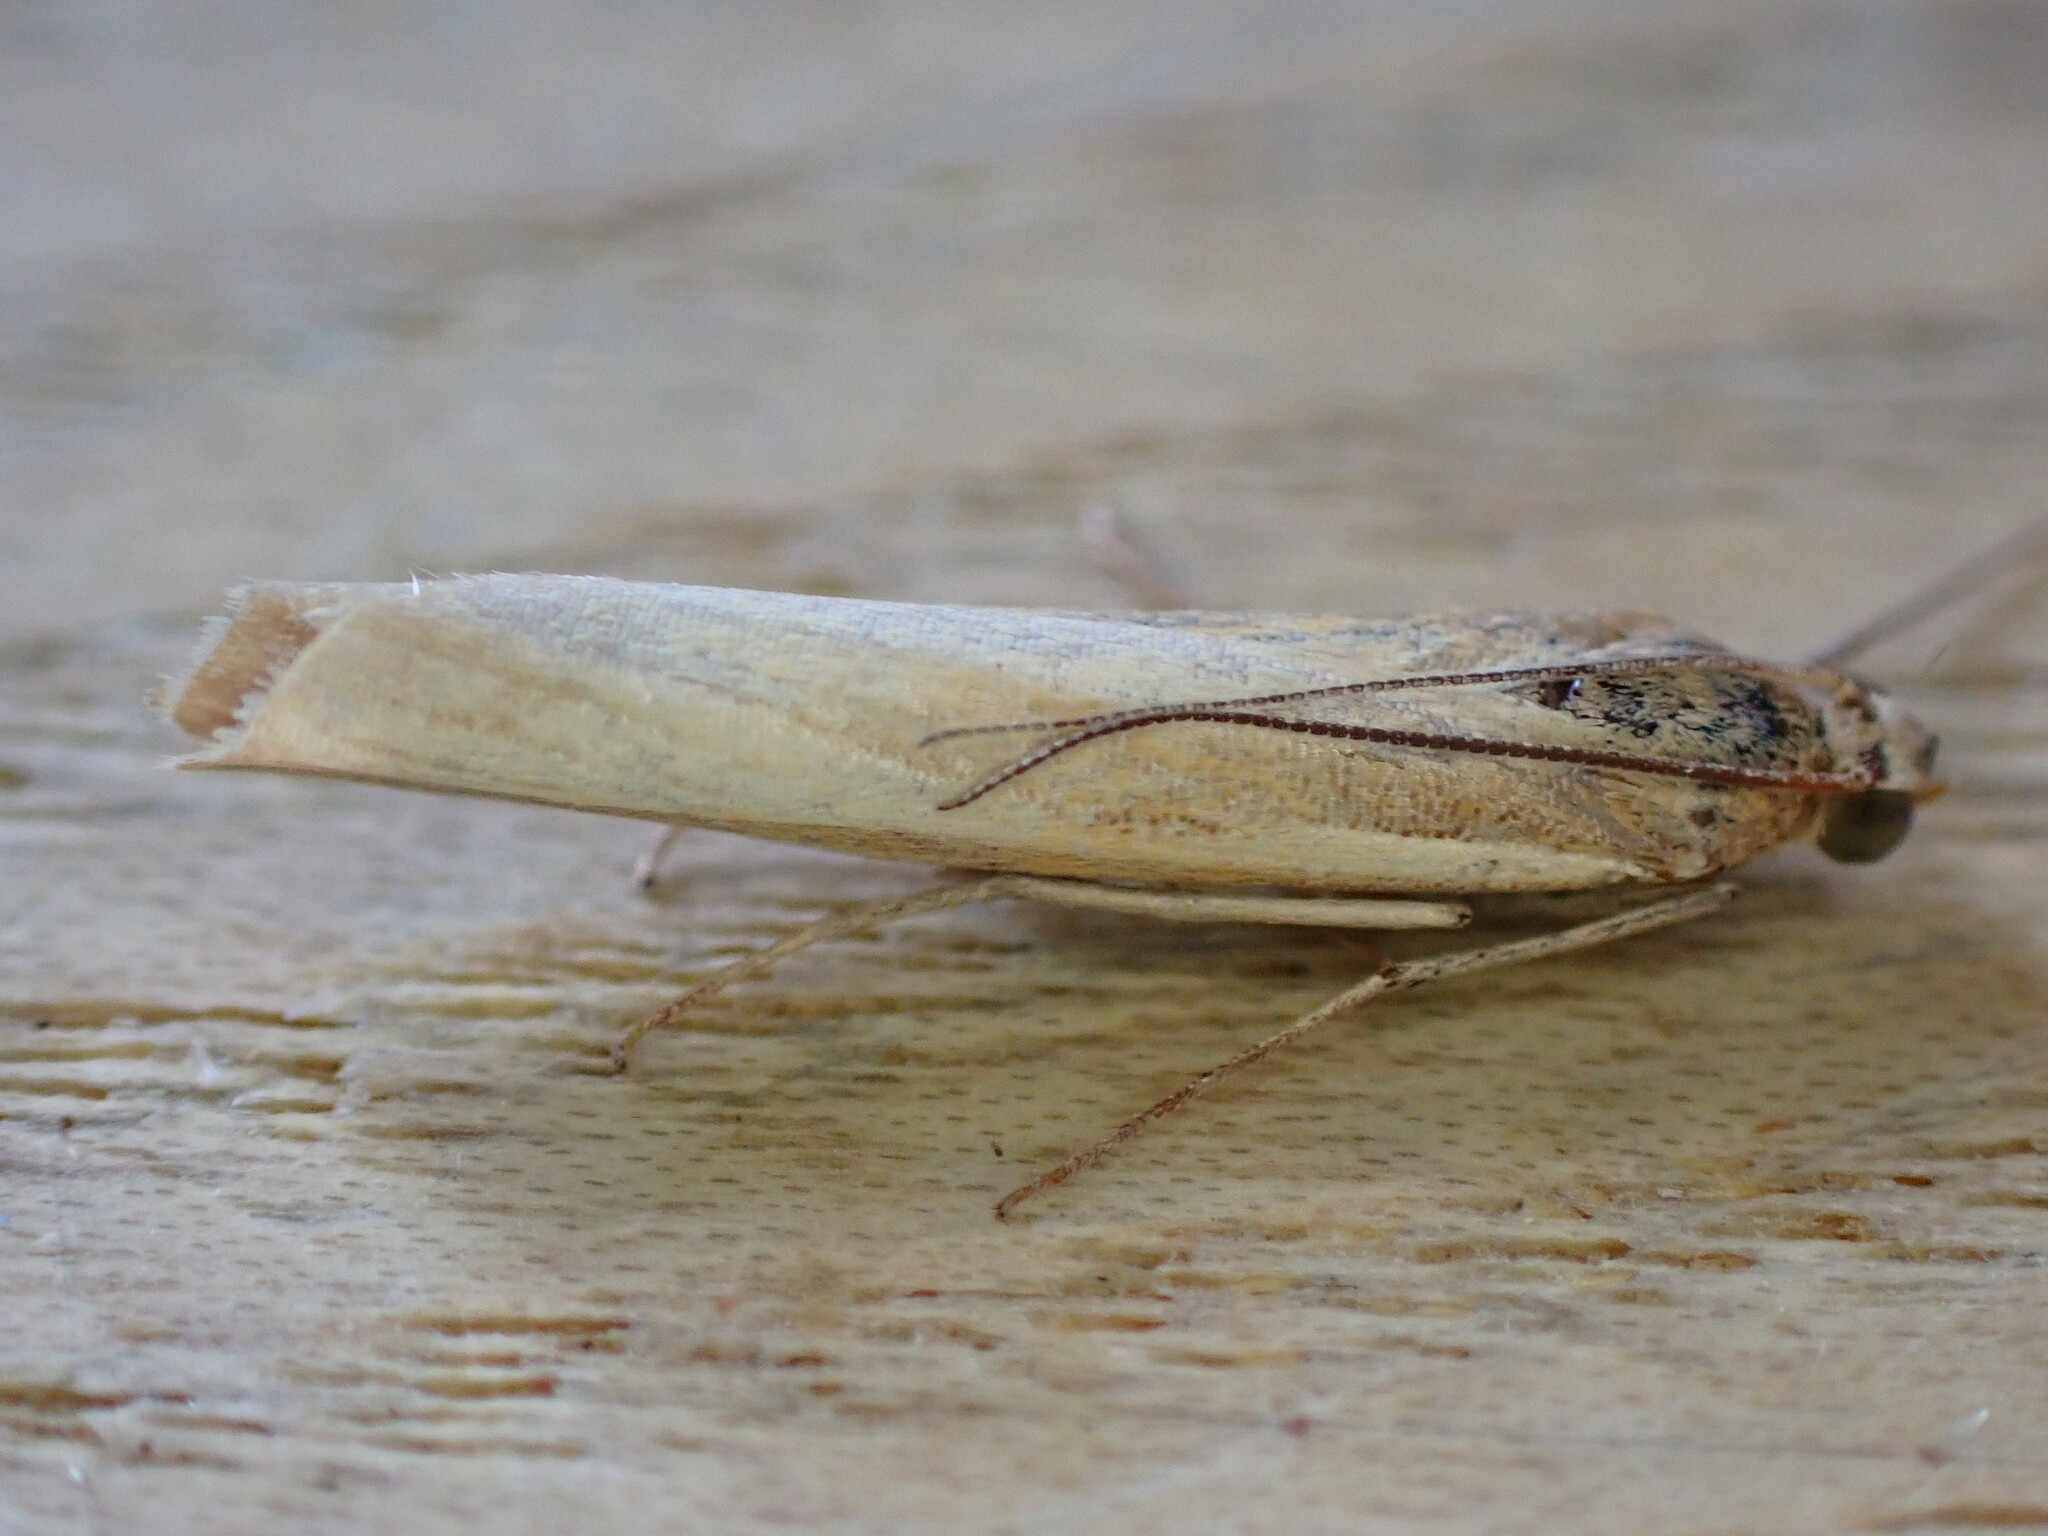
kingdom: Animalia
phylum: Arthropoda
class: Insecta
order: Lepidoptera
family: Crambidae
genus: Agriphila
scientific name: Agriphila tristellus
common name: Common grass-veneer
